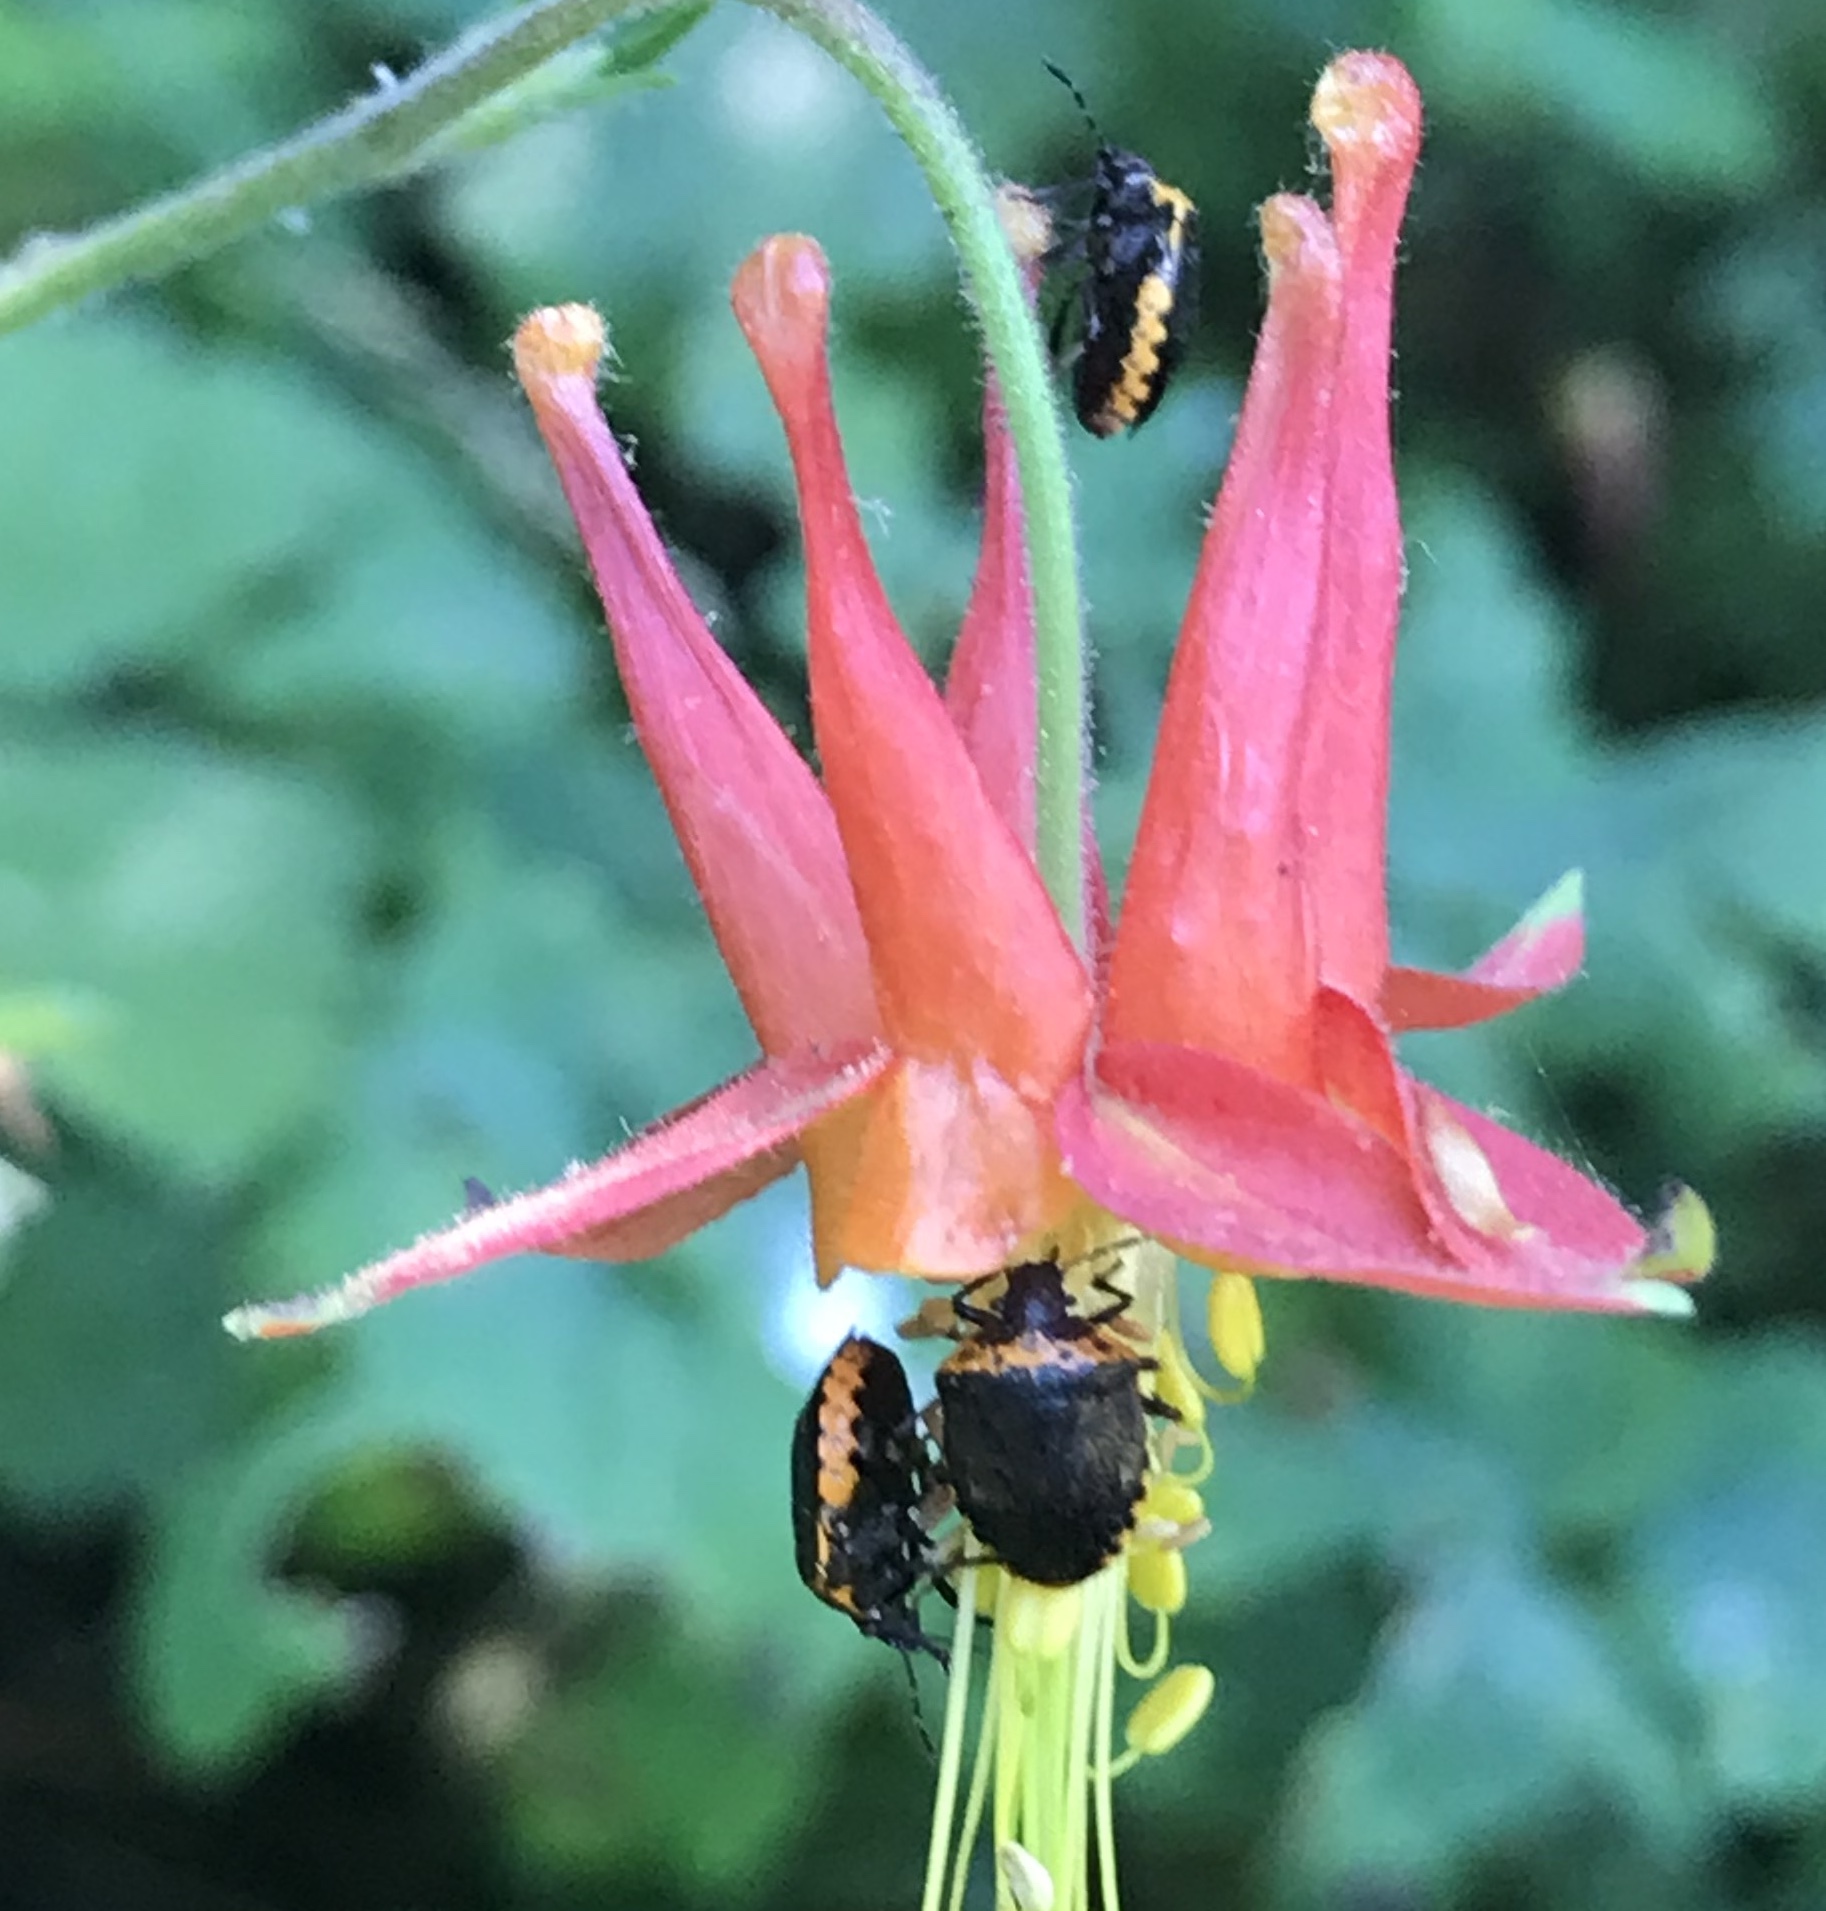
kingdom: Animalia
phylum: Arthropoda
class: Insecta
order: Hemiptera
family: Pentatomidae
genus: Cosmopepla
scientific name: Cosmopepla uhleri
